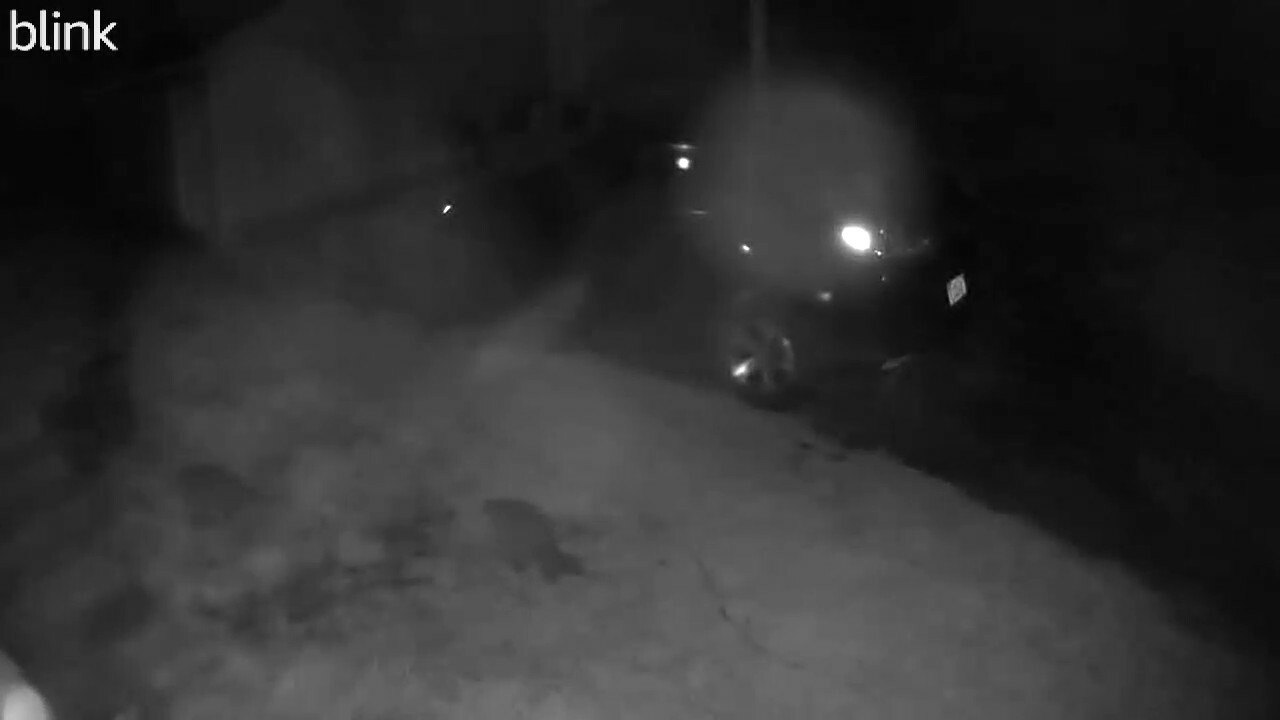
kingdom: Animalia
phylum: Chordata
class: Mammalia
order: Carnivora
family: Procyonidae
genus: Procyon
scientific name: Procyon lotor
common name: Raccoon
